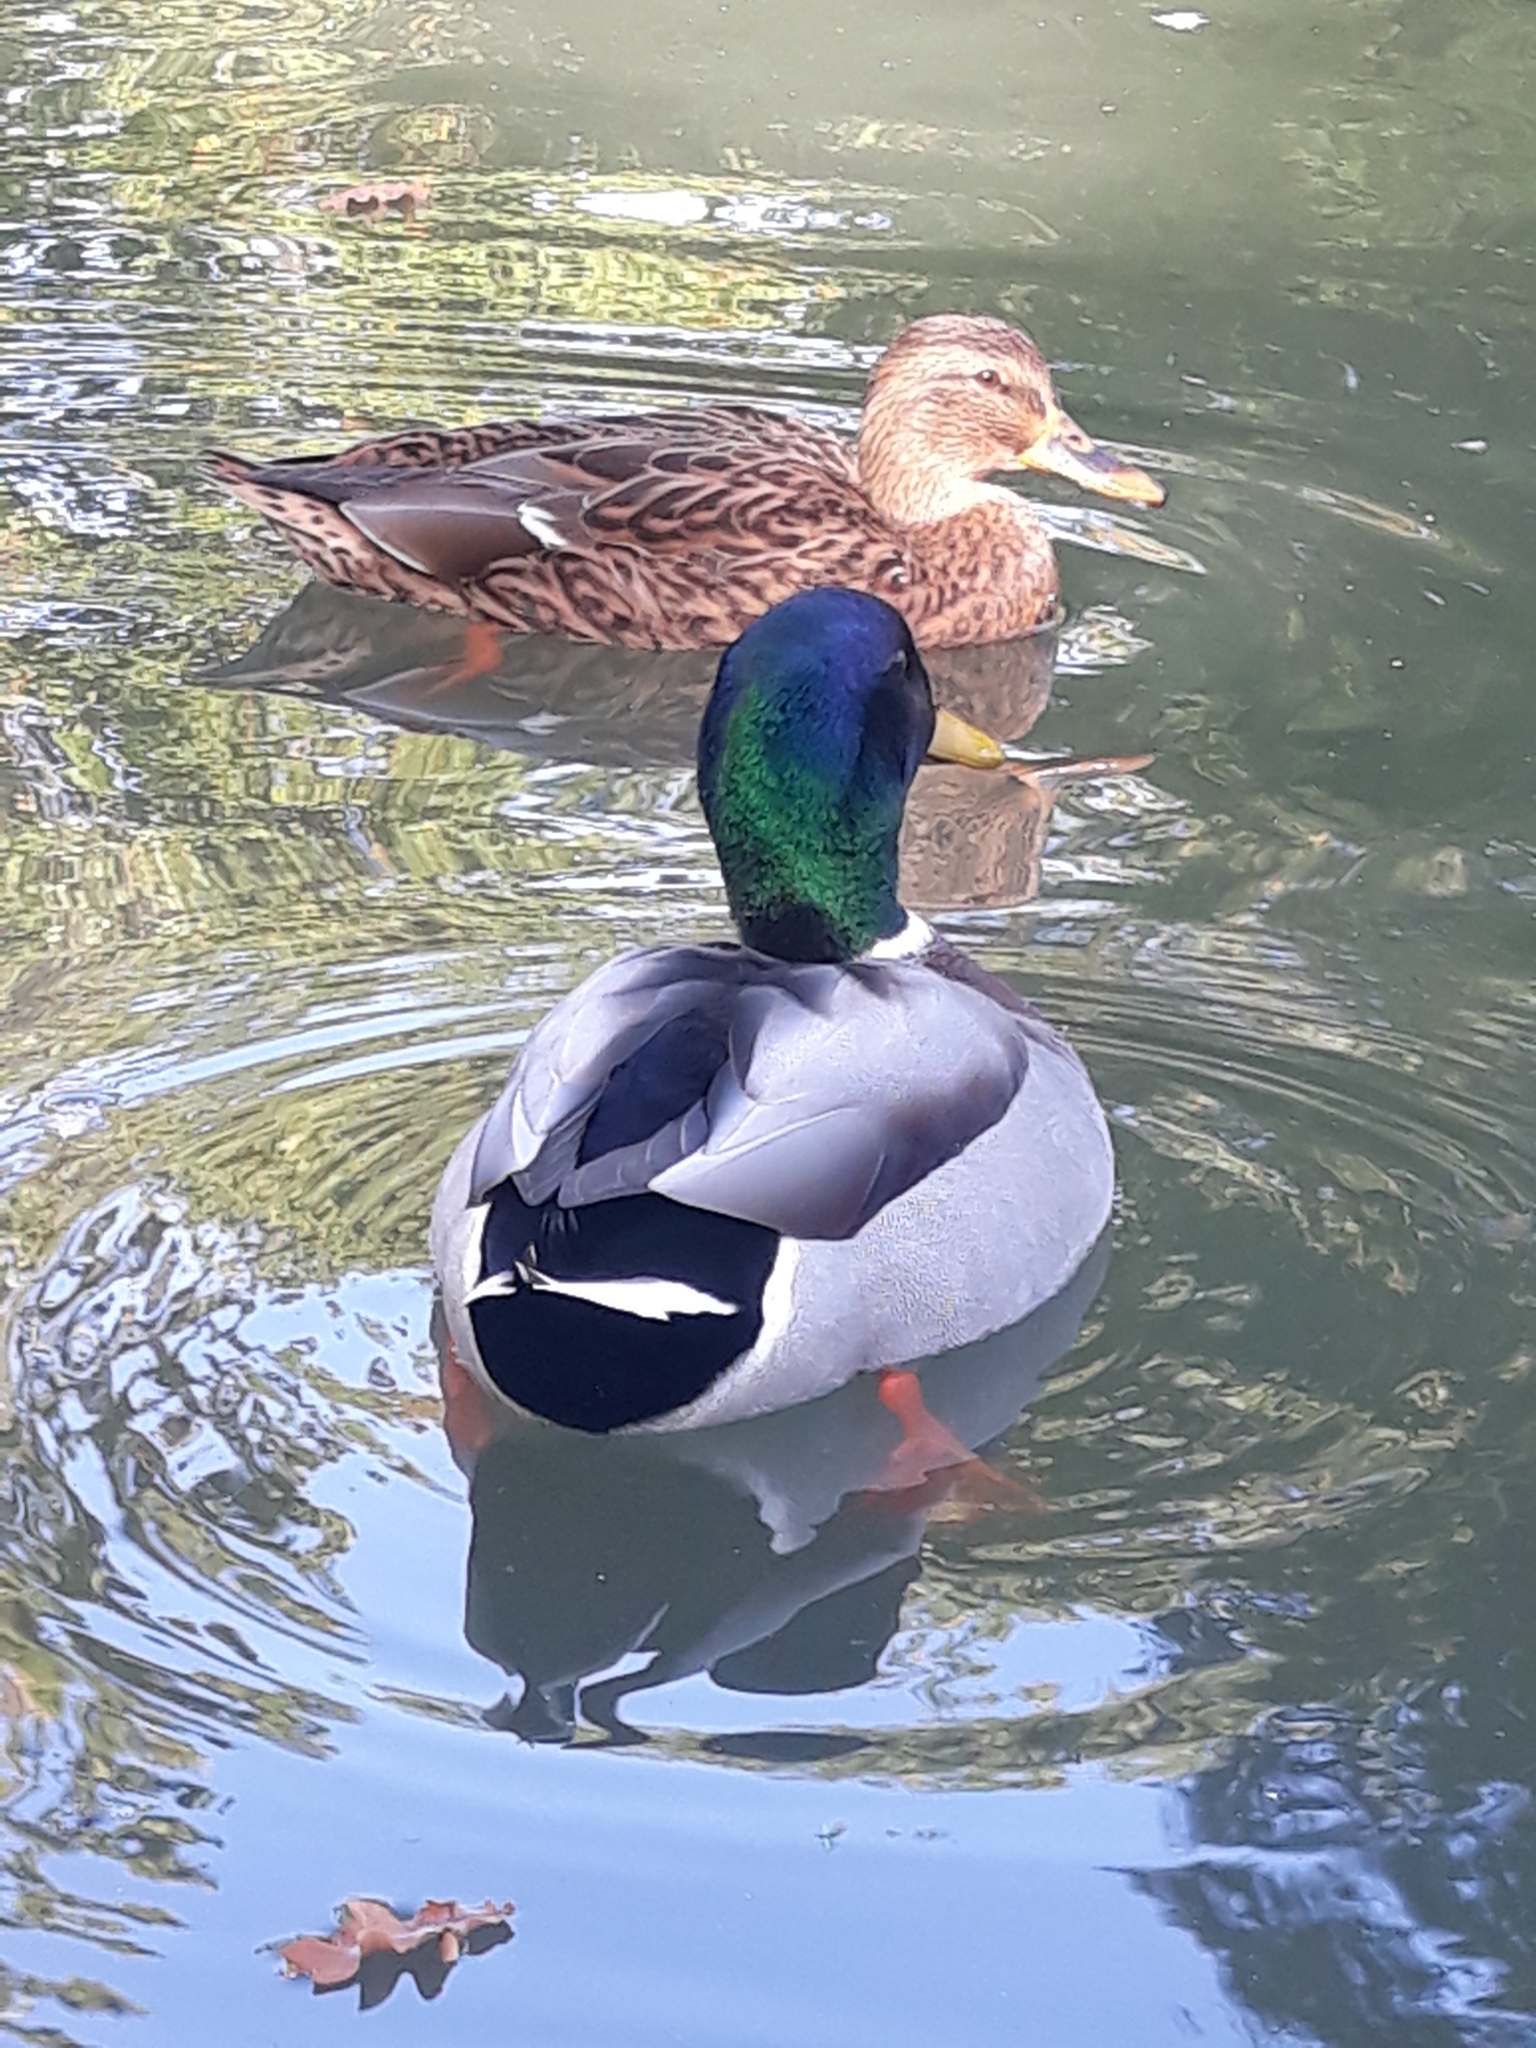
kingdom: Animalia
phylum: Chordata
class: Aves
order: Anseriformes
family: Anatidae
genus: Anas
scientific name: Anas platyrhynchos
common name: Mallard
